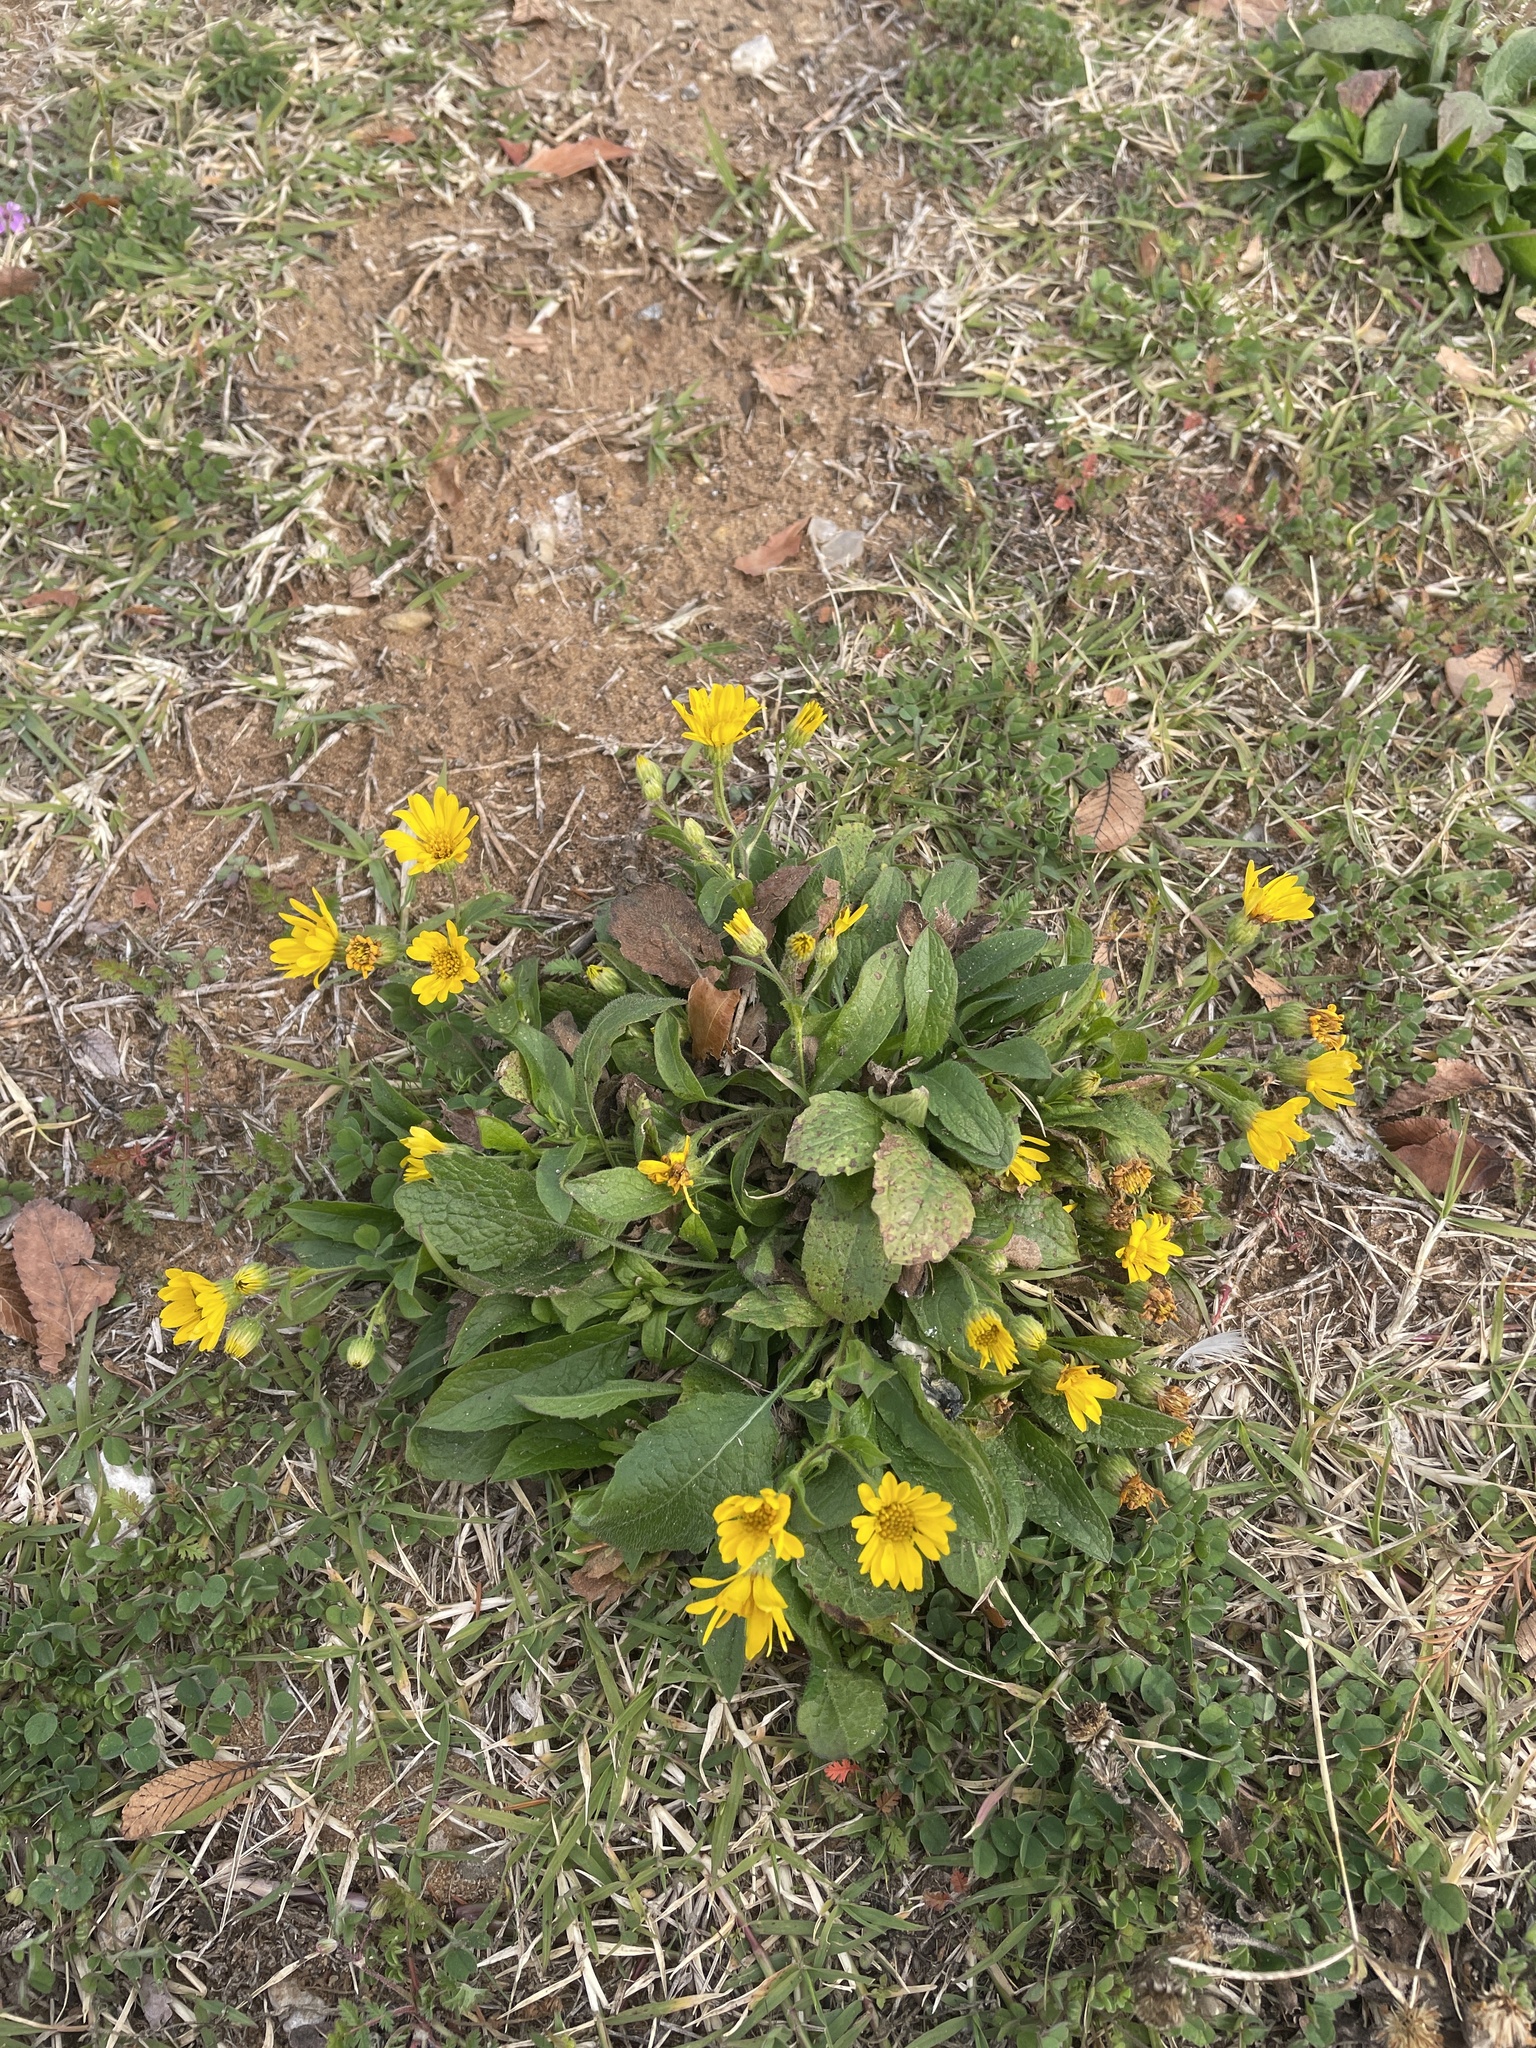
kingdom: Plantae
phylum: Tracheophyta
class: Magnoliopsida
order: Asterales
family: Asteraceae
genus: Heterotheca
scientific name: Heterotheca subaxillaris
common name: Camphorweed
